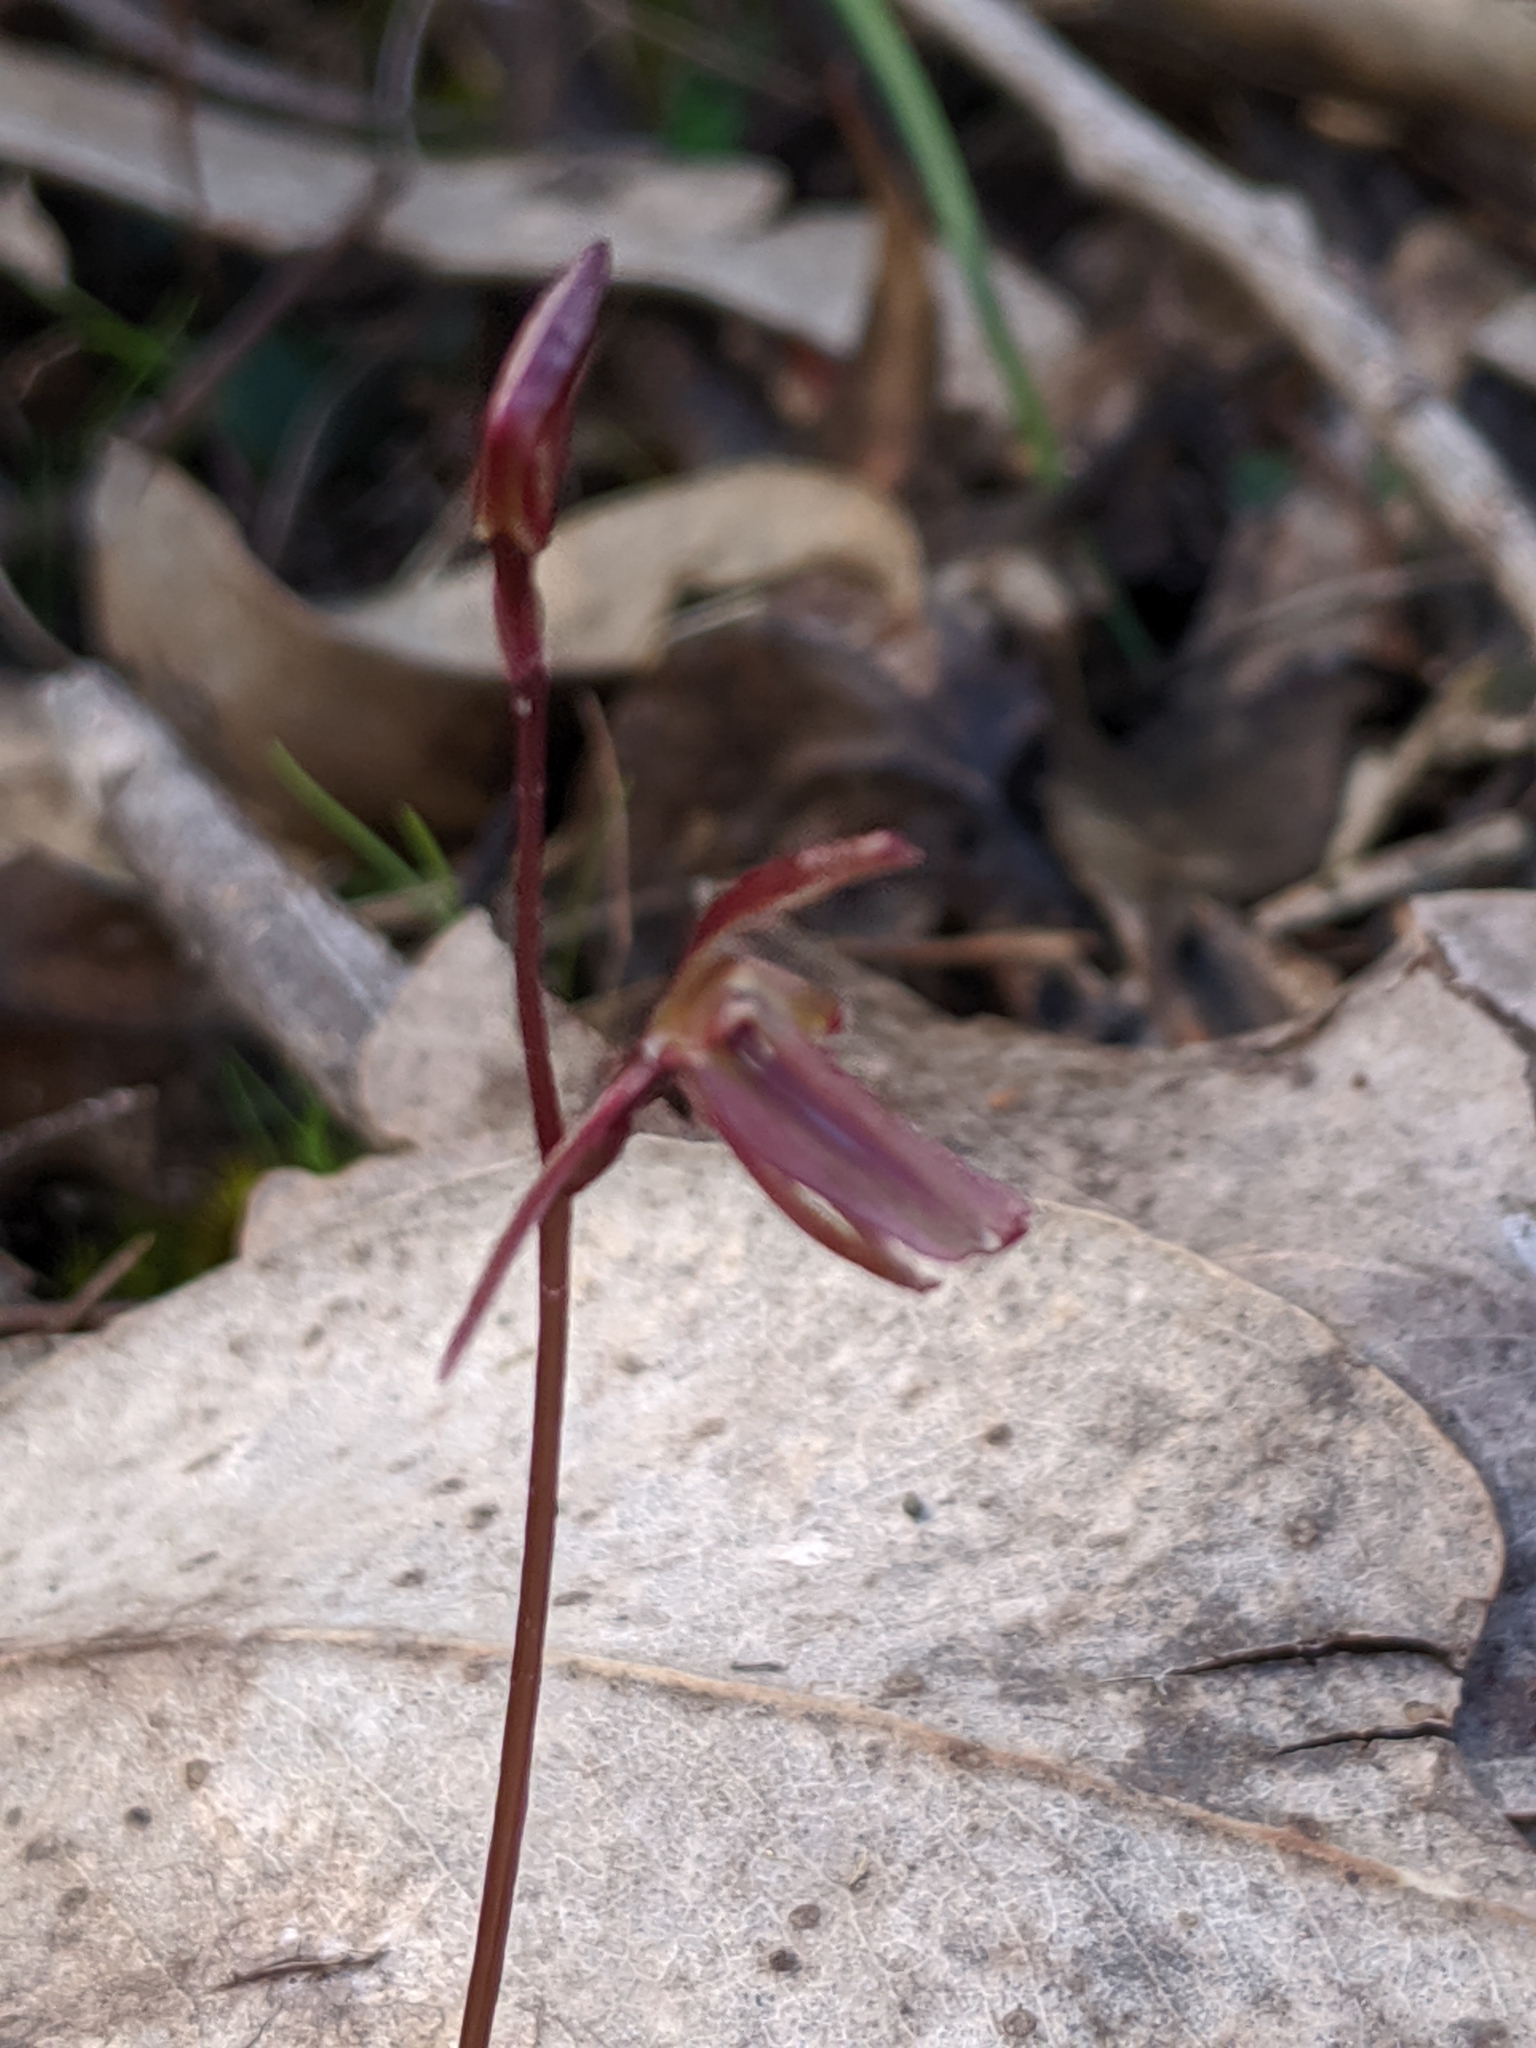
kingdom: Plantae
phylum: Tracheophyta
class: Liliopsida
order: Asparagales
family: Orchidaceae
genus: Cyrtostylis
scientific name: Cyrtostylis reniformis
